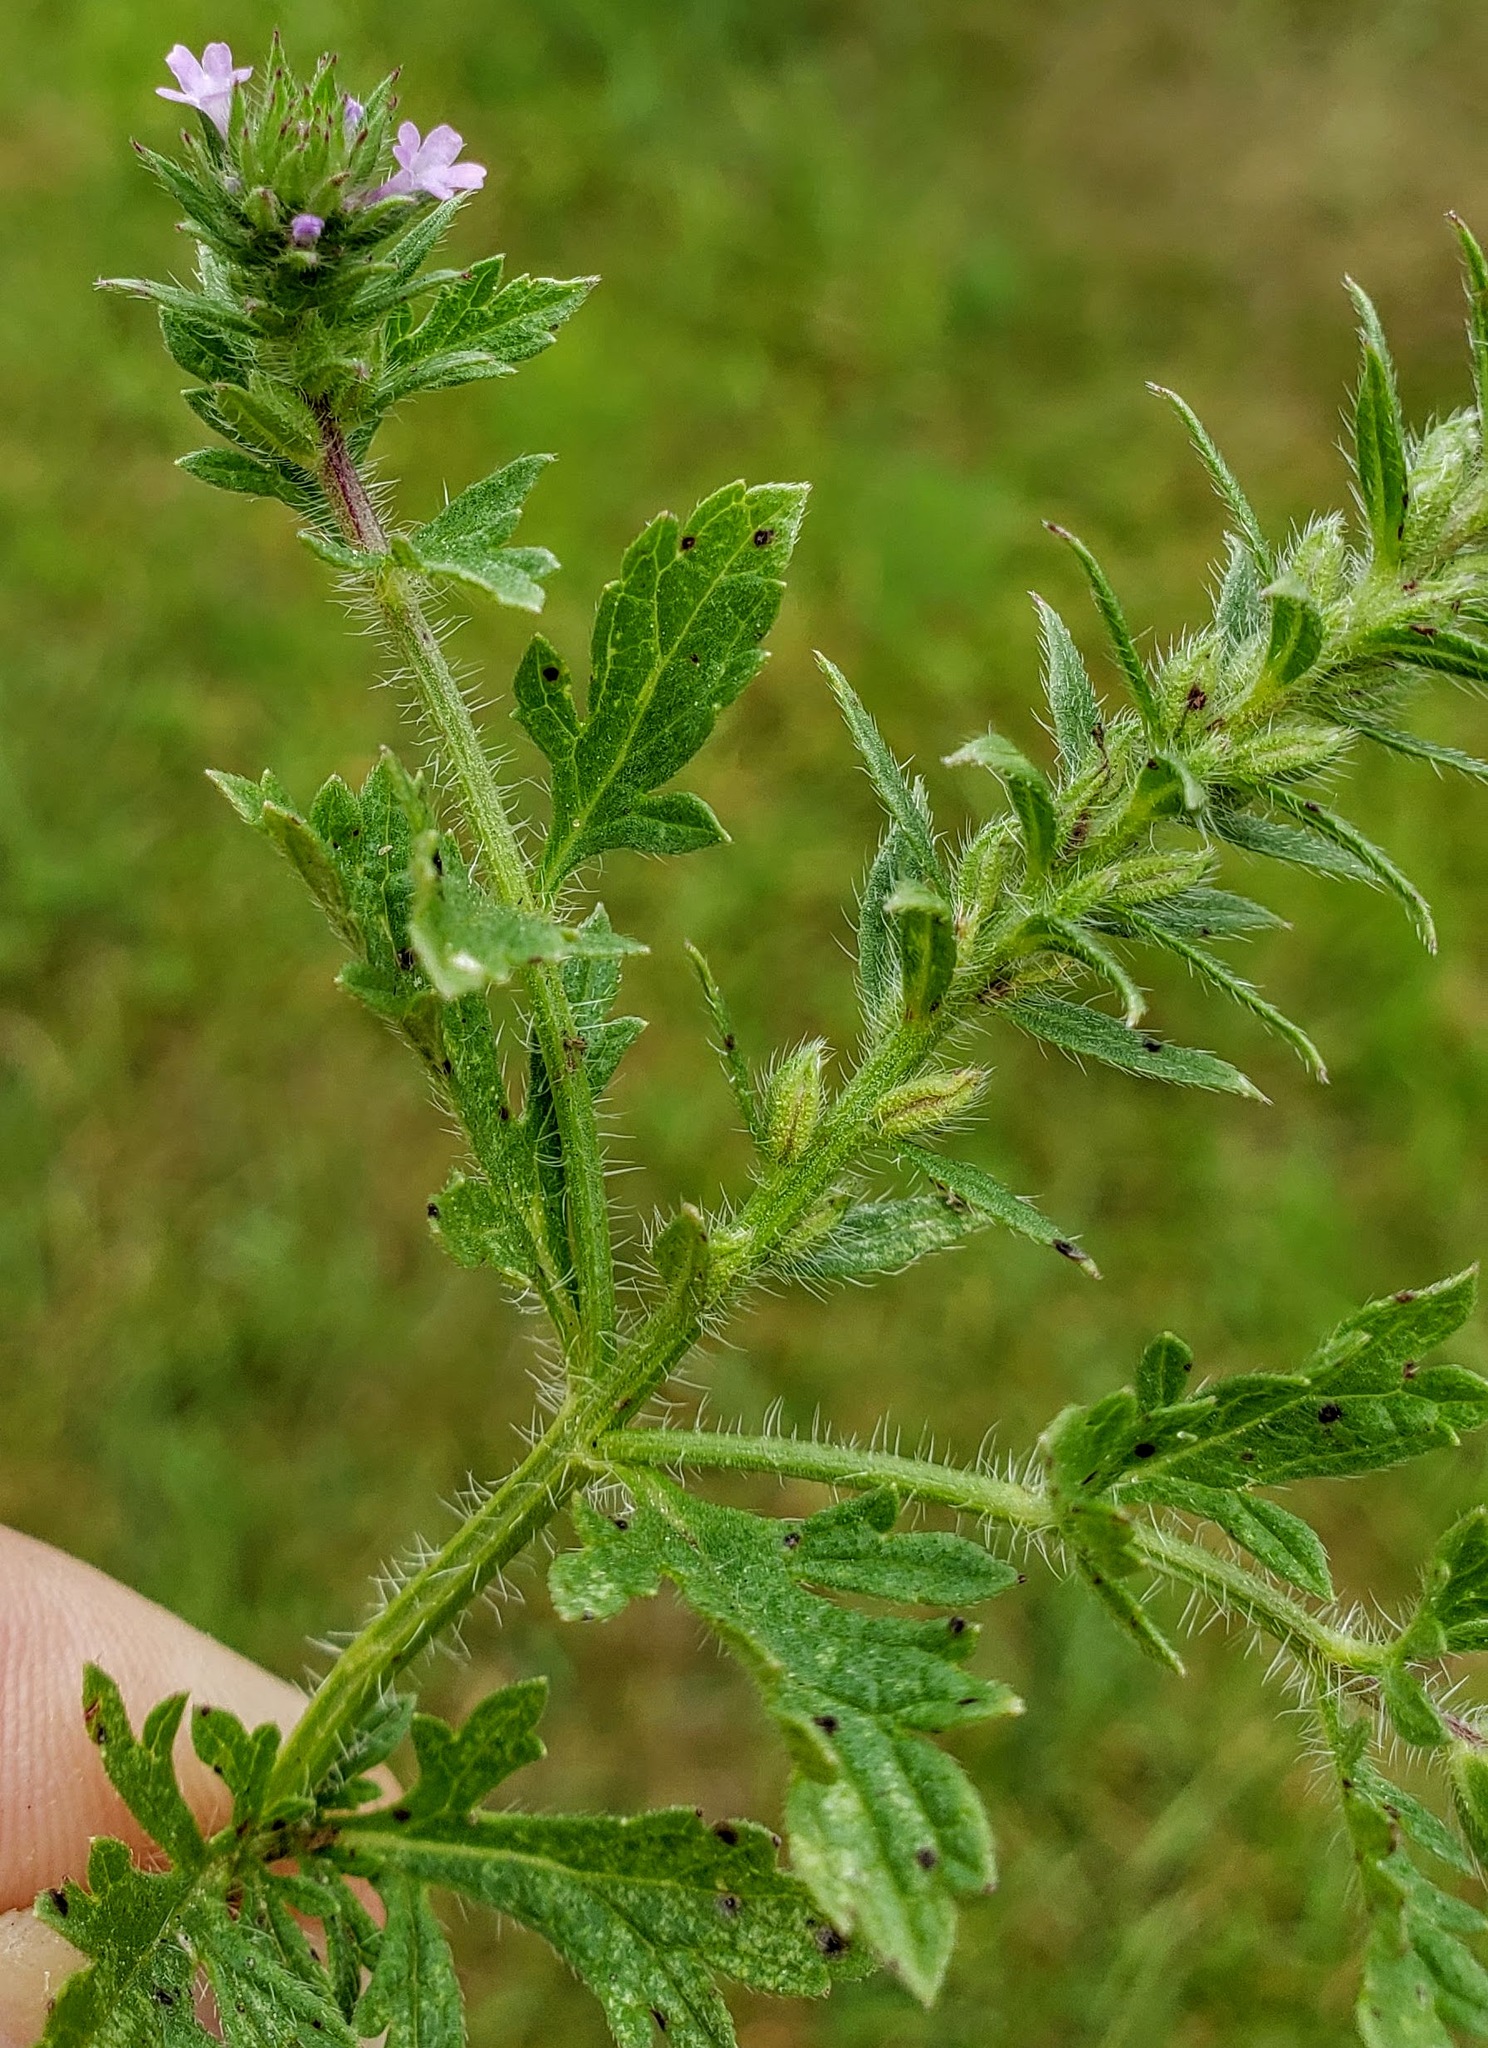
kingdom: Plantae
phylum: Tracheophyta
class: Magnoliopsida
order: Lamiales
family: Verbenaceae
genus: Verbena
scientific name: Verbena bracteata
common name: Bracted vervain
